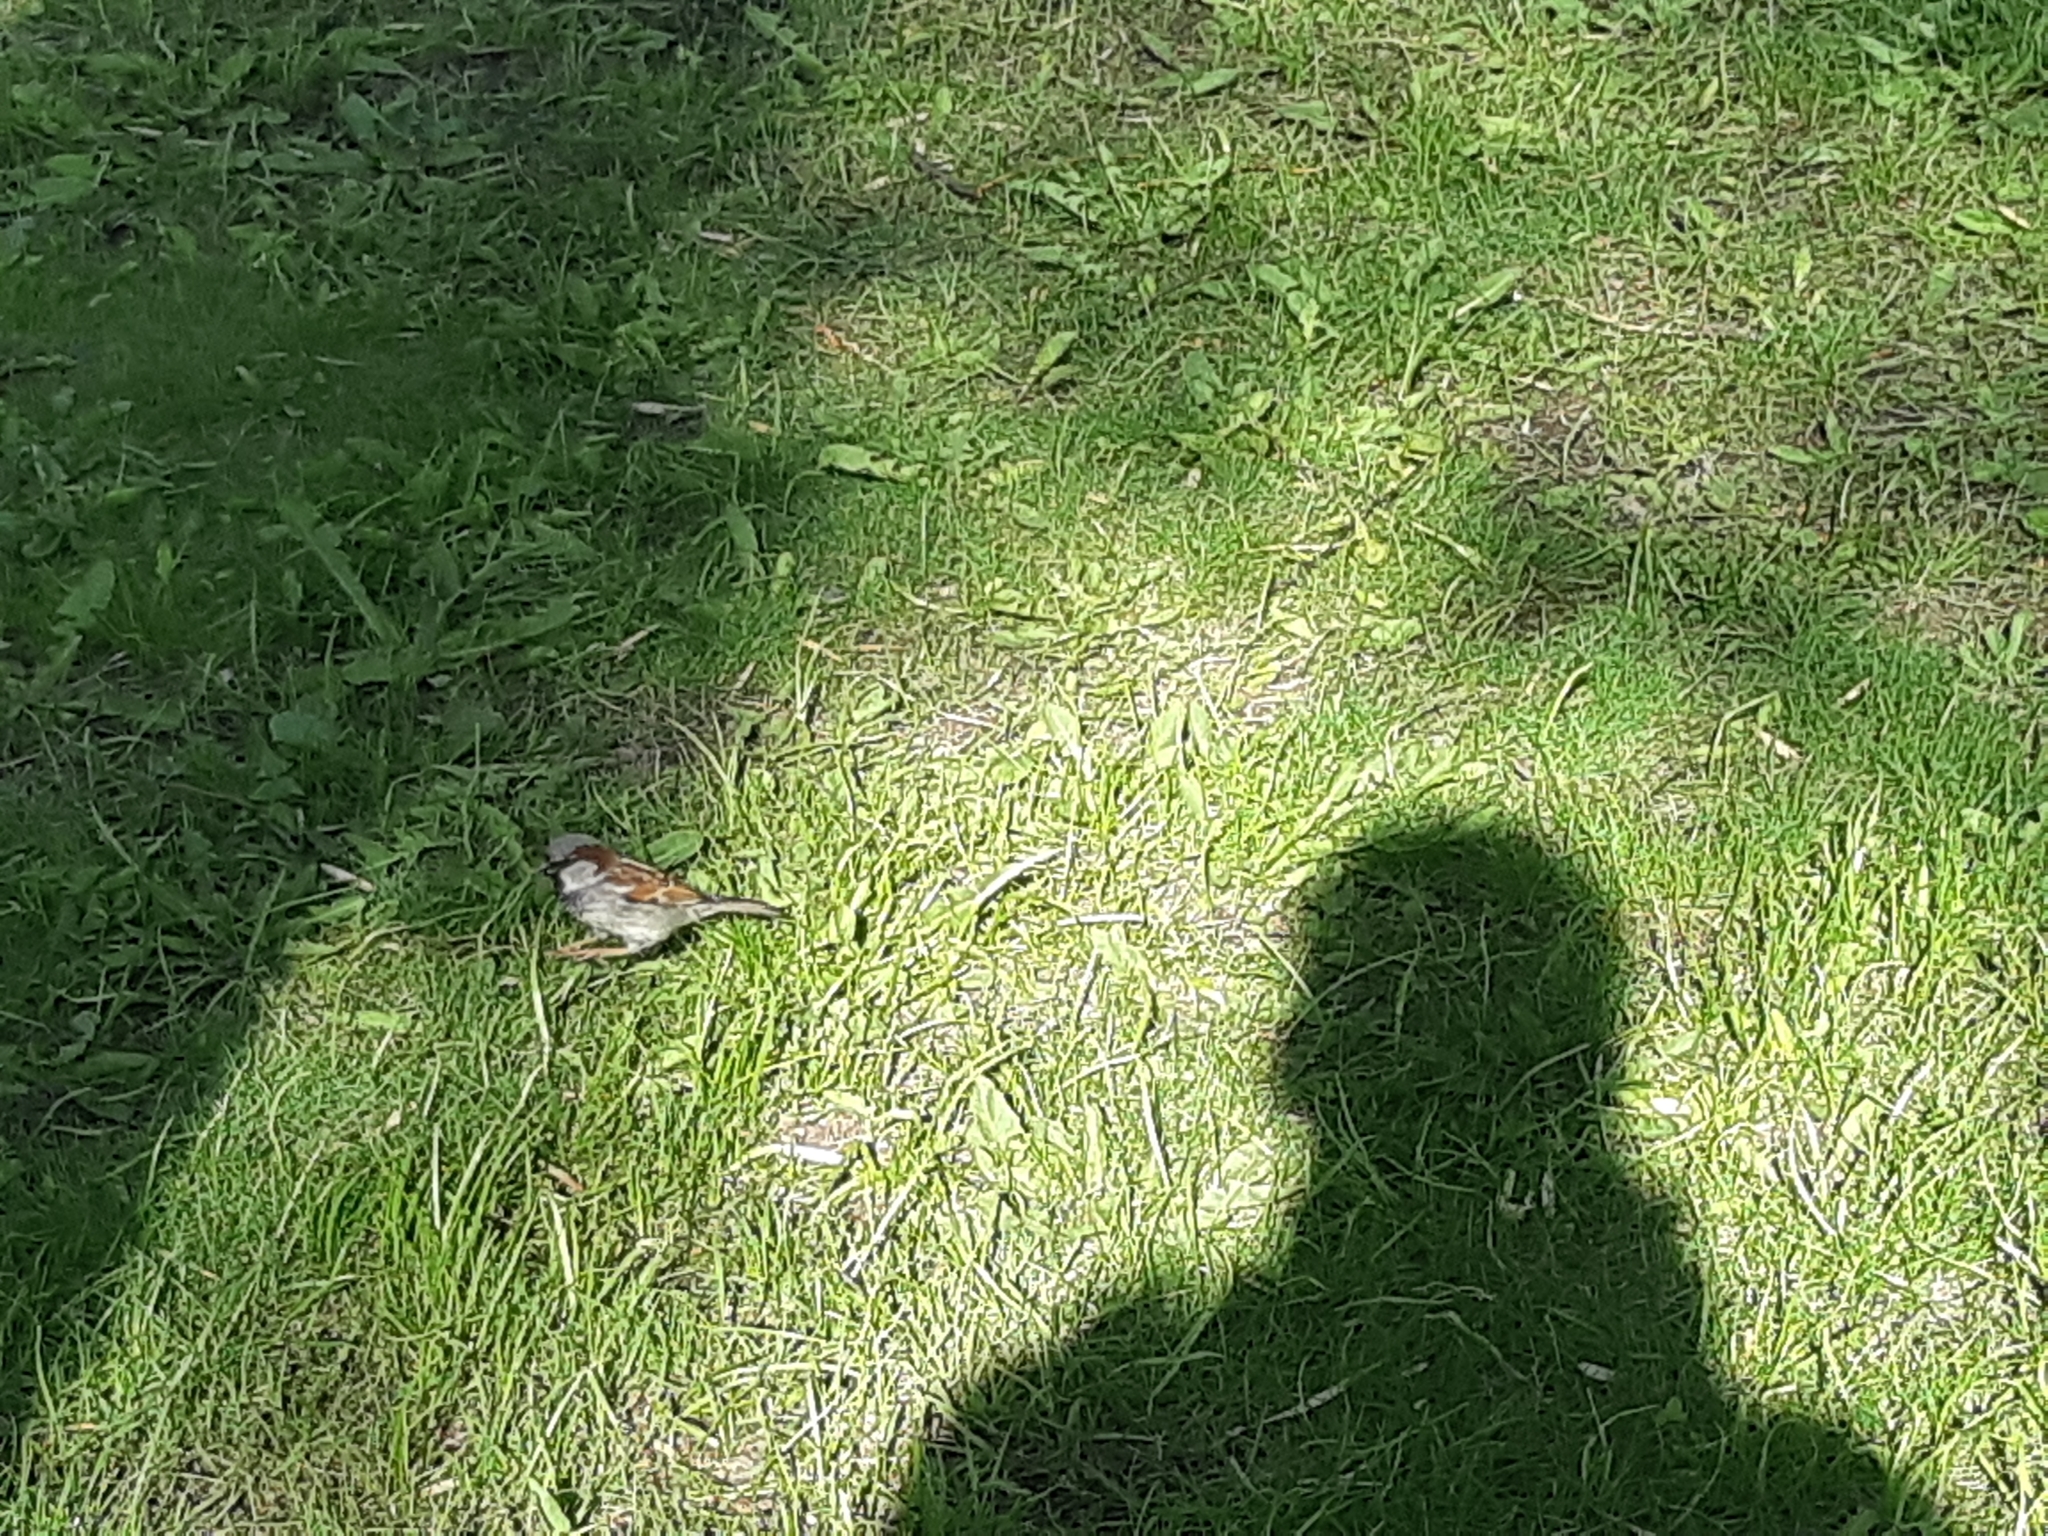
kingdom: Animalia
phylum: Chordata
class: Aves
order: Passeriformes
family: Passeridae
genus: Passer
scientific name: Passer domesticus
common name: House sparrow
